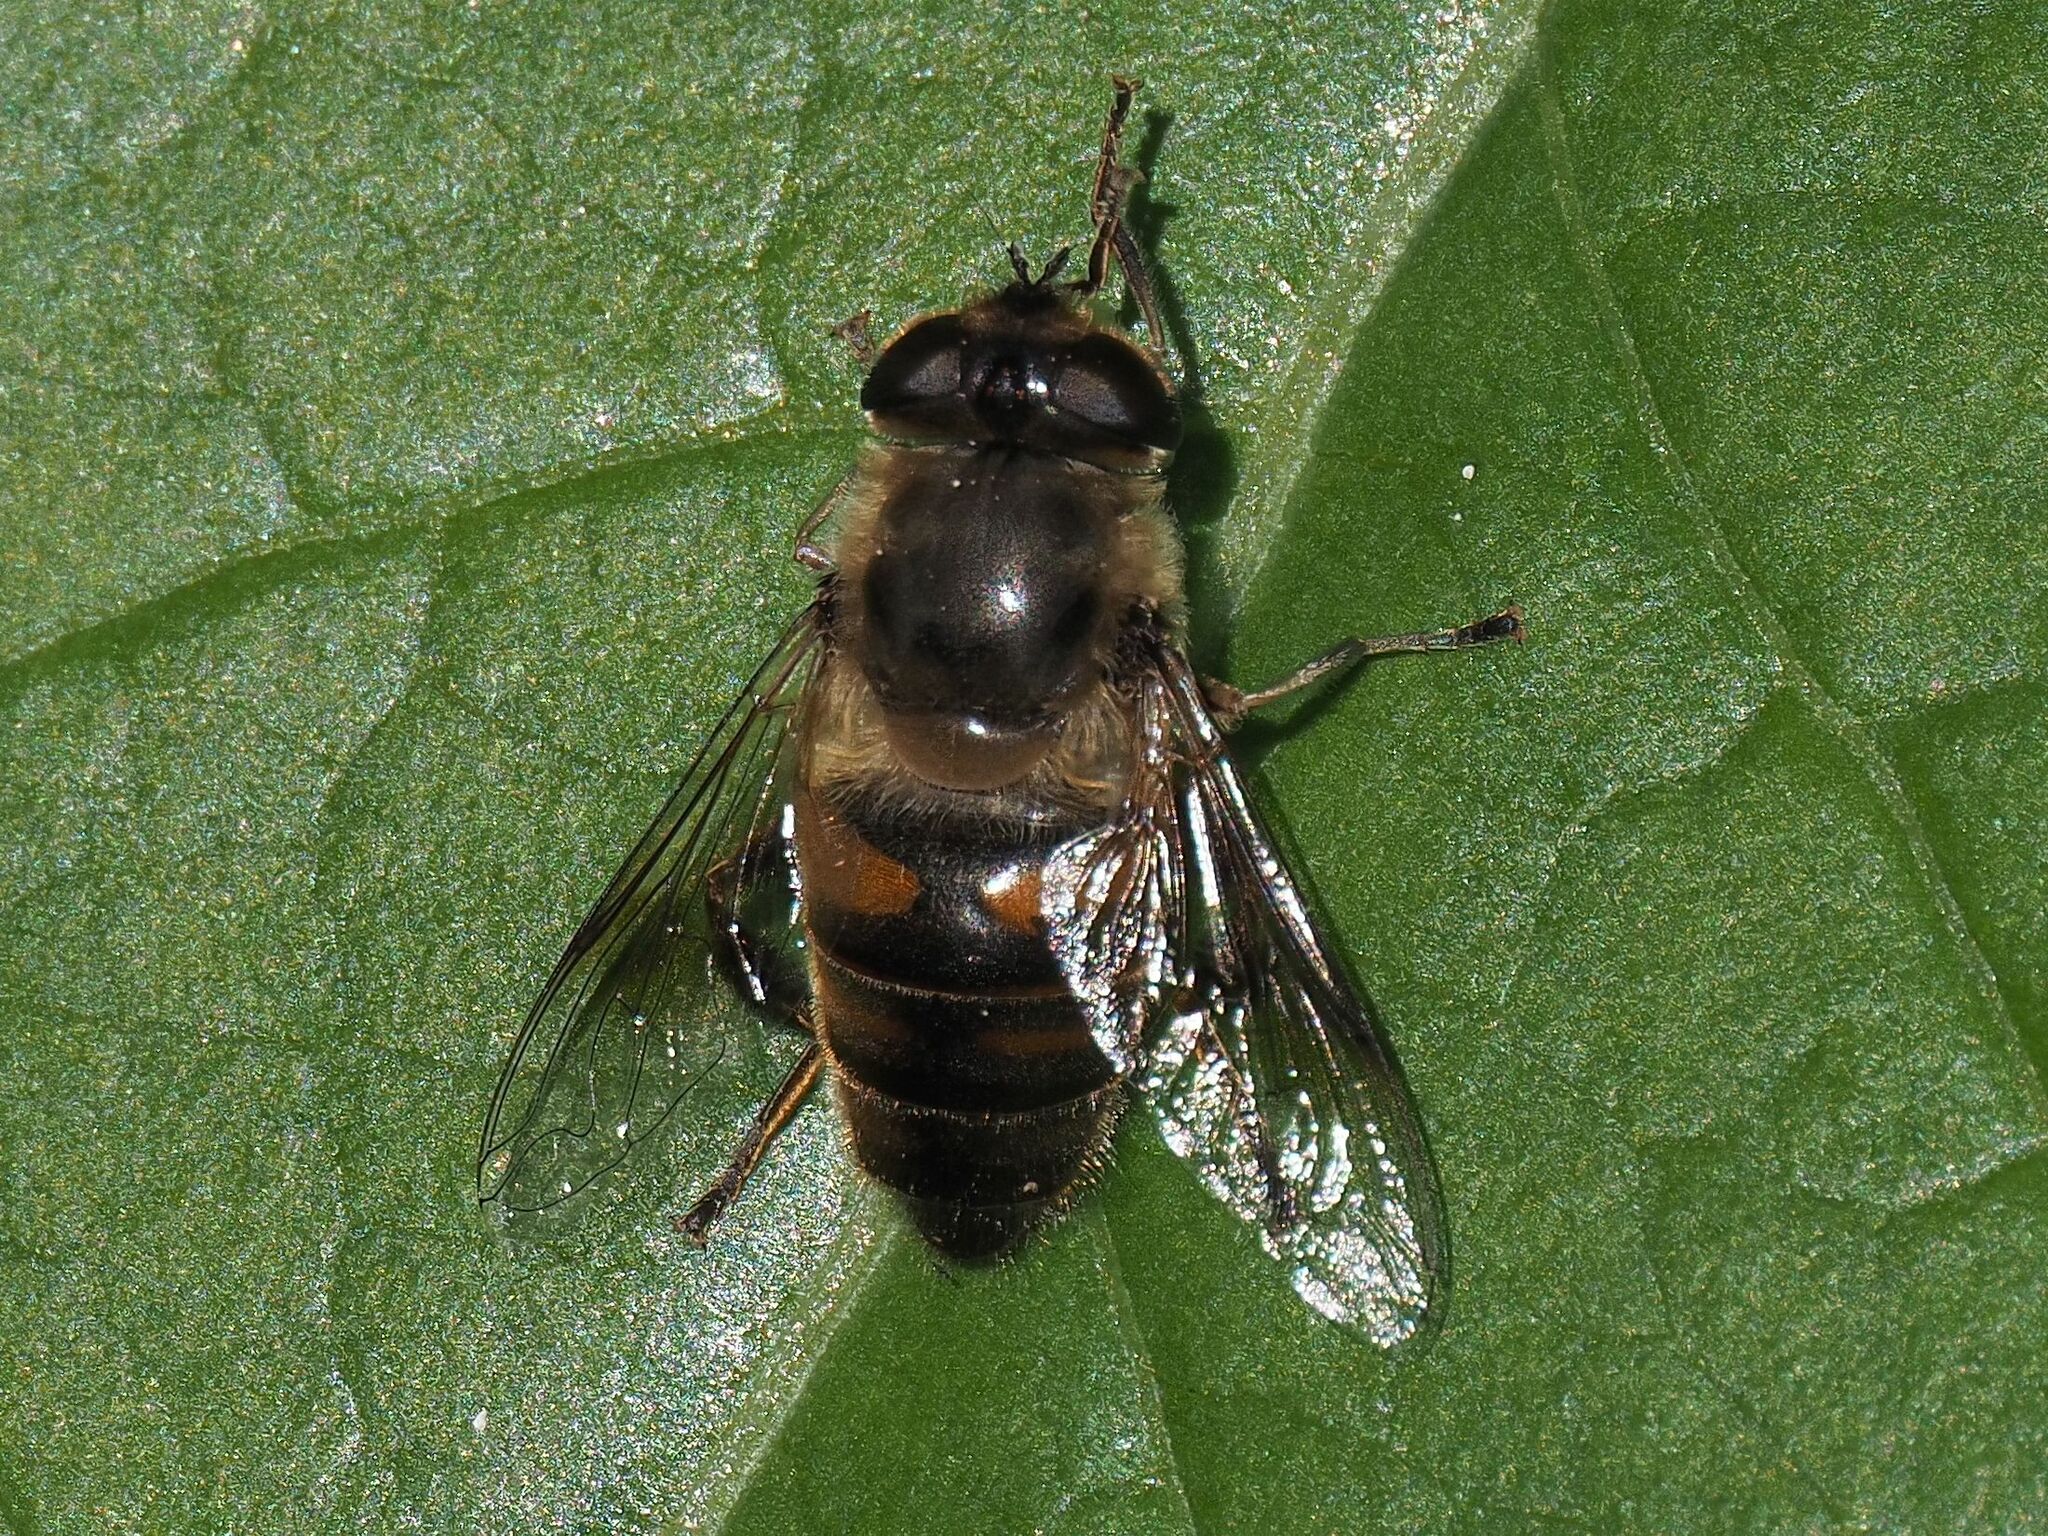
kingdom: Animalia
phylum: Arthropoda
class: Insecta
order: Diptera
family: Syrphidae
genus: Eristalis
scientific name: Eristalis tenax
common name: Drone fly
